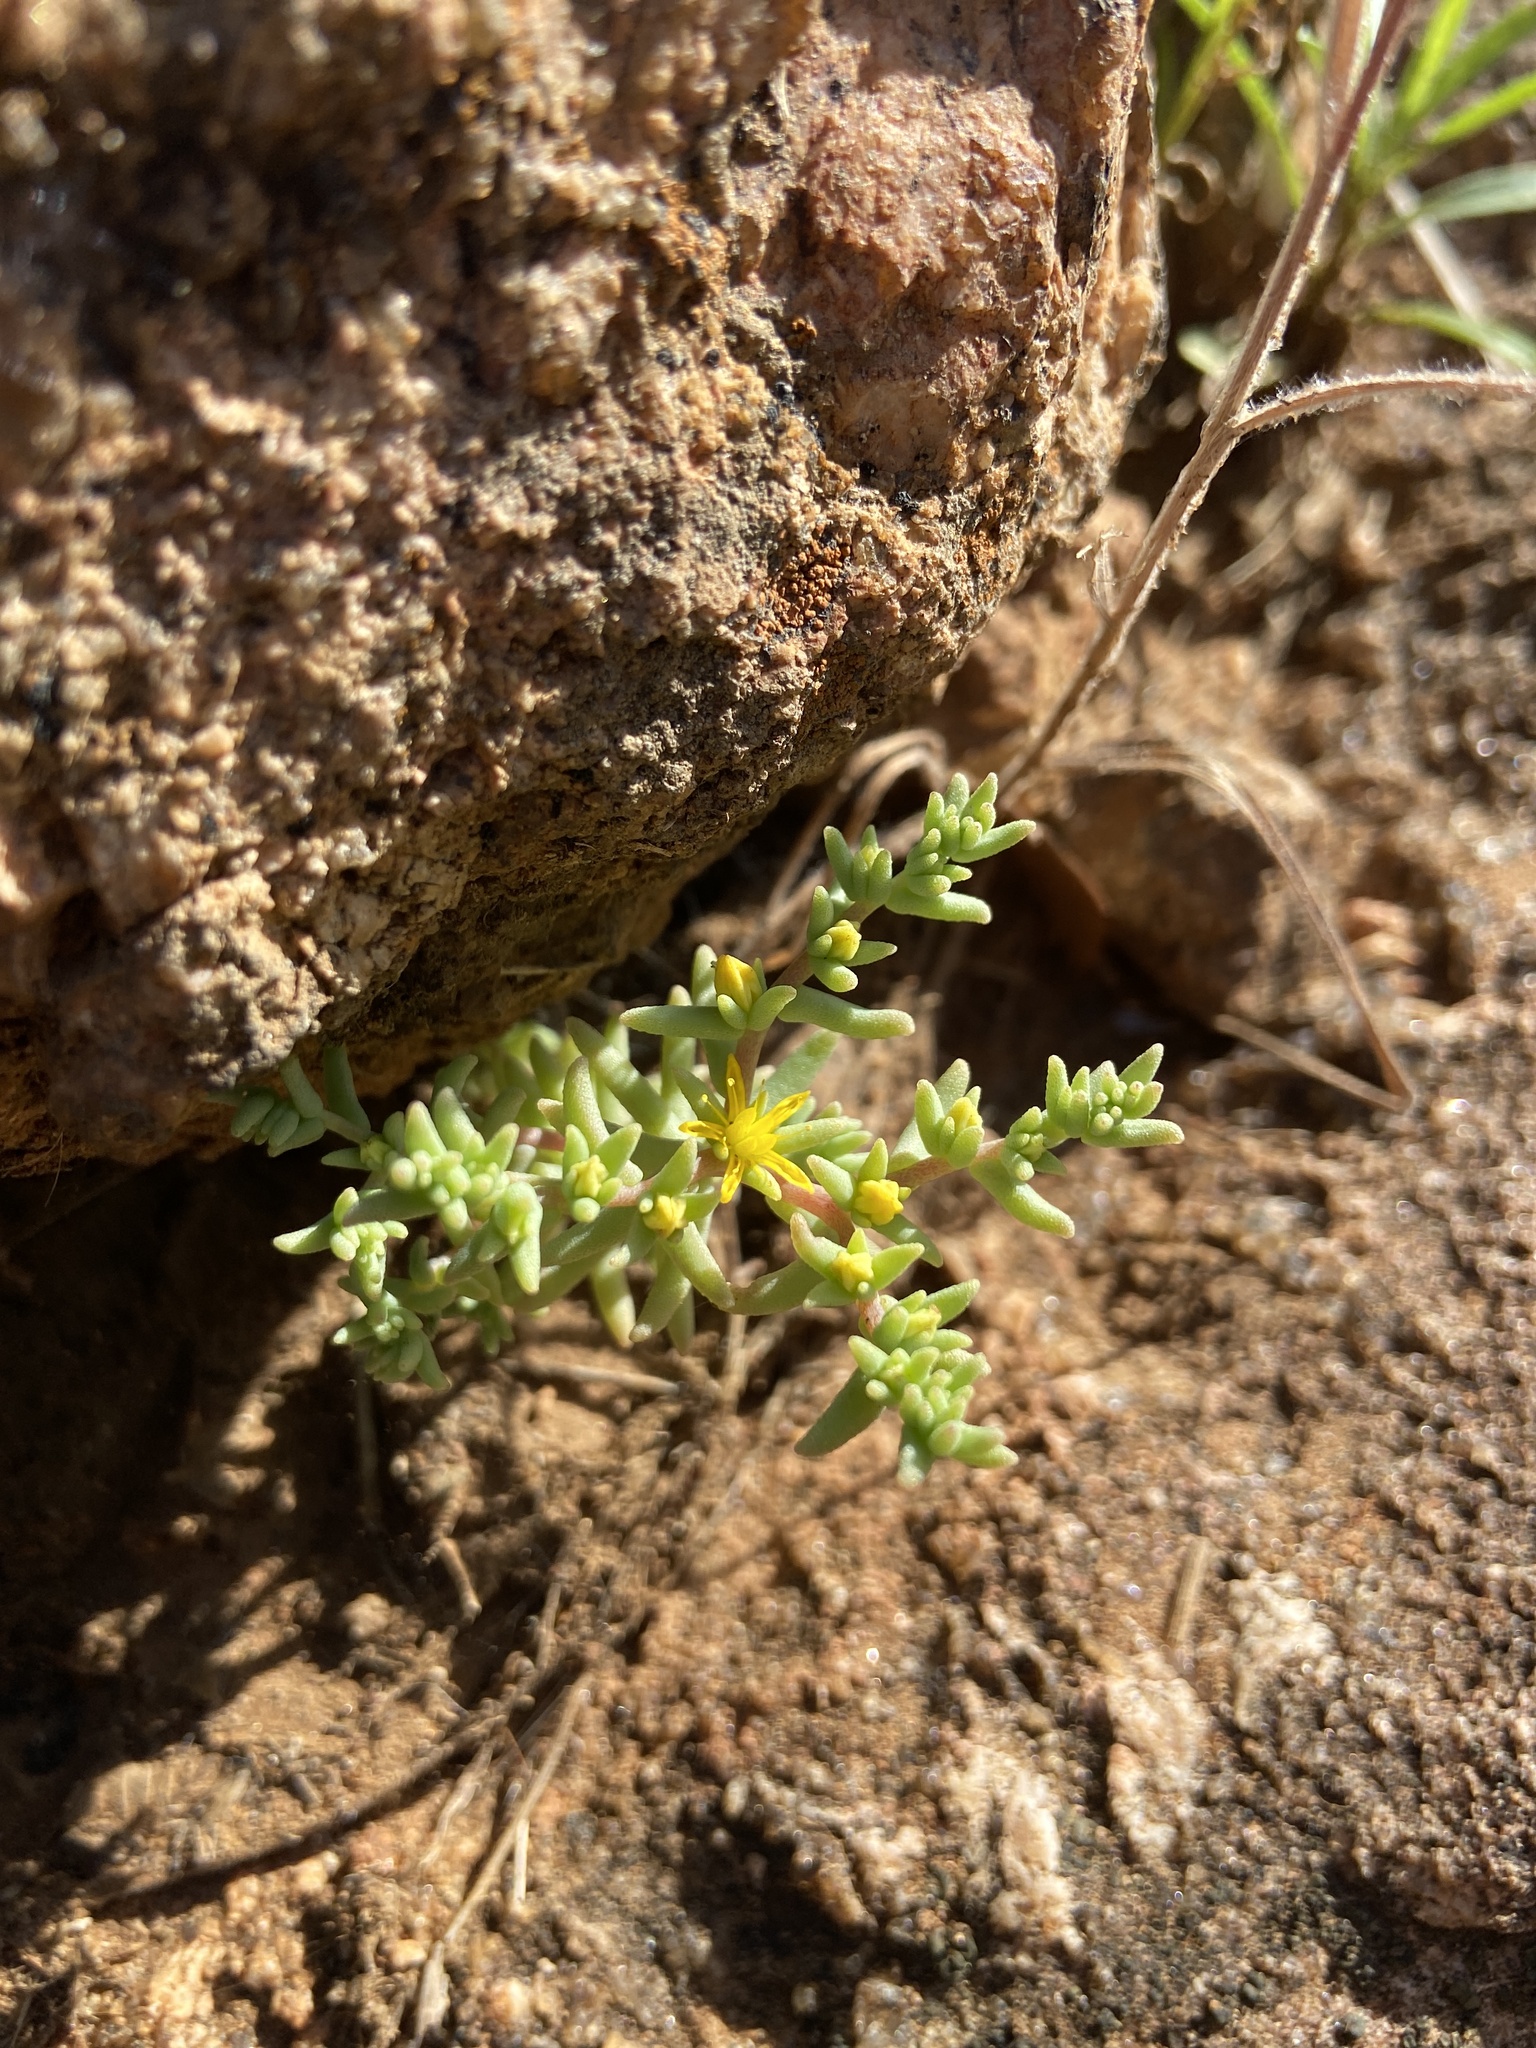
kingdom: Plantae
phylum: Tracheophyta
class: Magnoliopsida
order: Saxifragales
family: Crassulaceae
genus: Sedum
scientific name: Sedum nuttallii
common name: Yellow stonecrop
